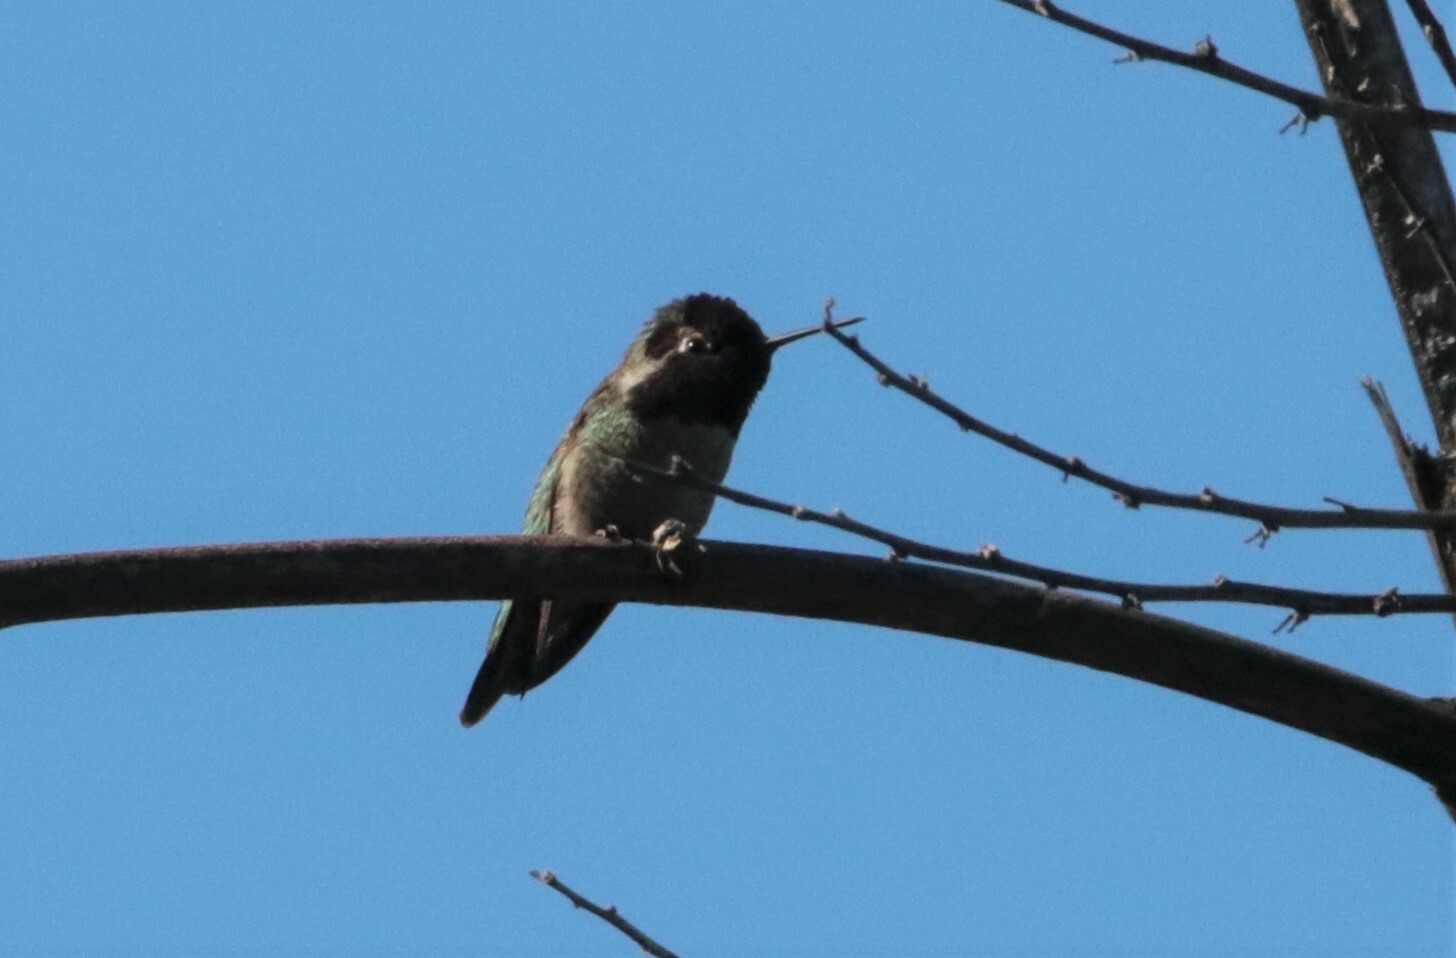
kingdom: Animalia
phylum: Chordata
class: Aves
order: Apodiformes
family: Trochilidae
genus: Calypte
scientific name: Calypte anna
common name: Anna's hummingbird
